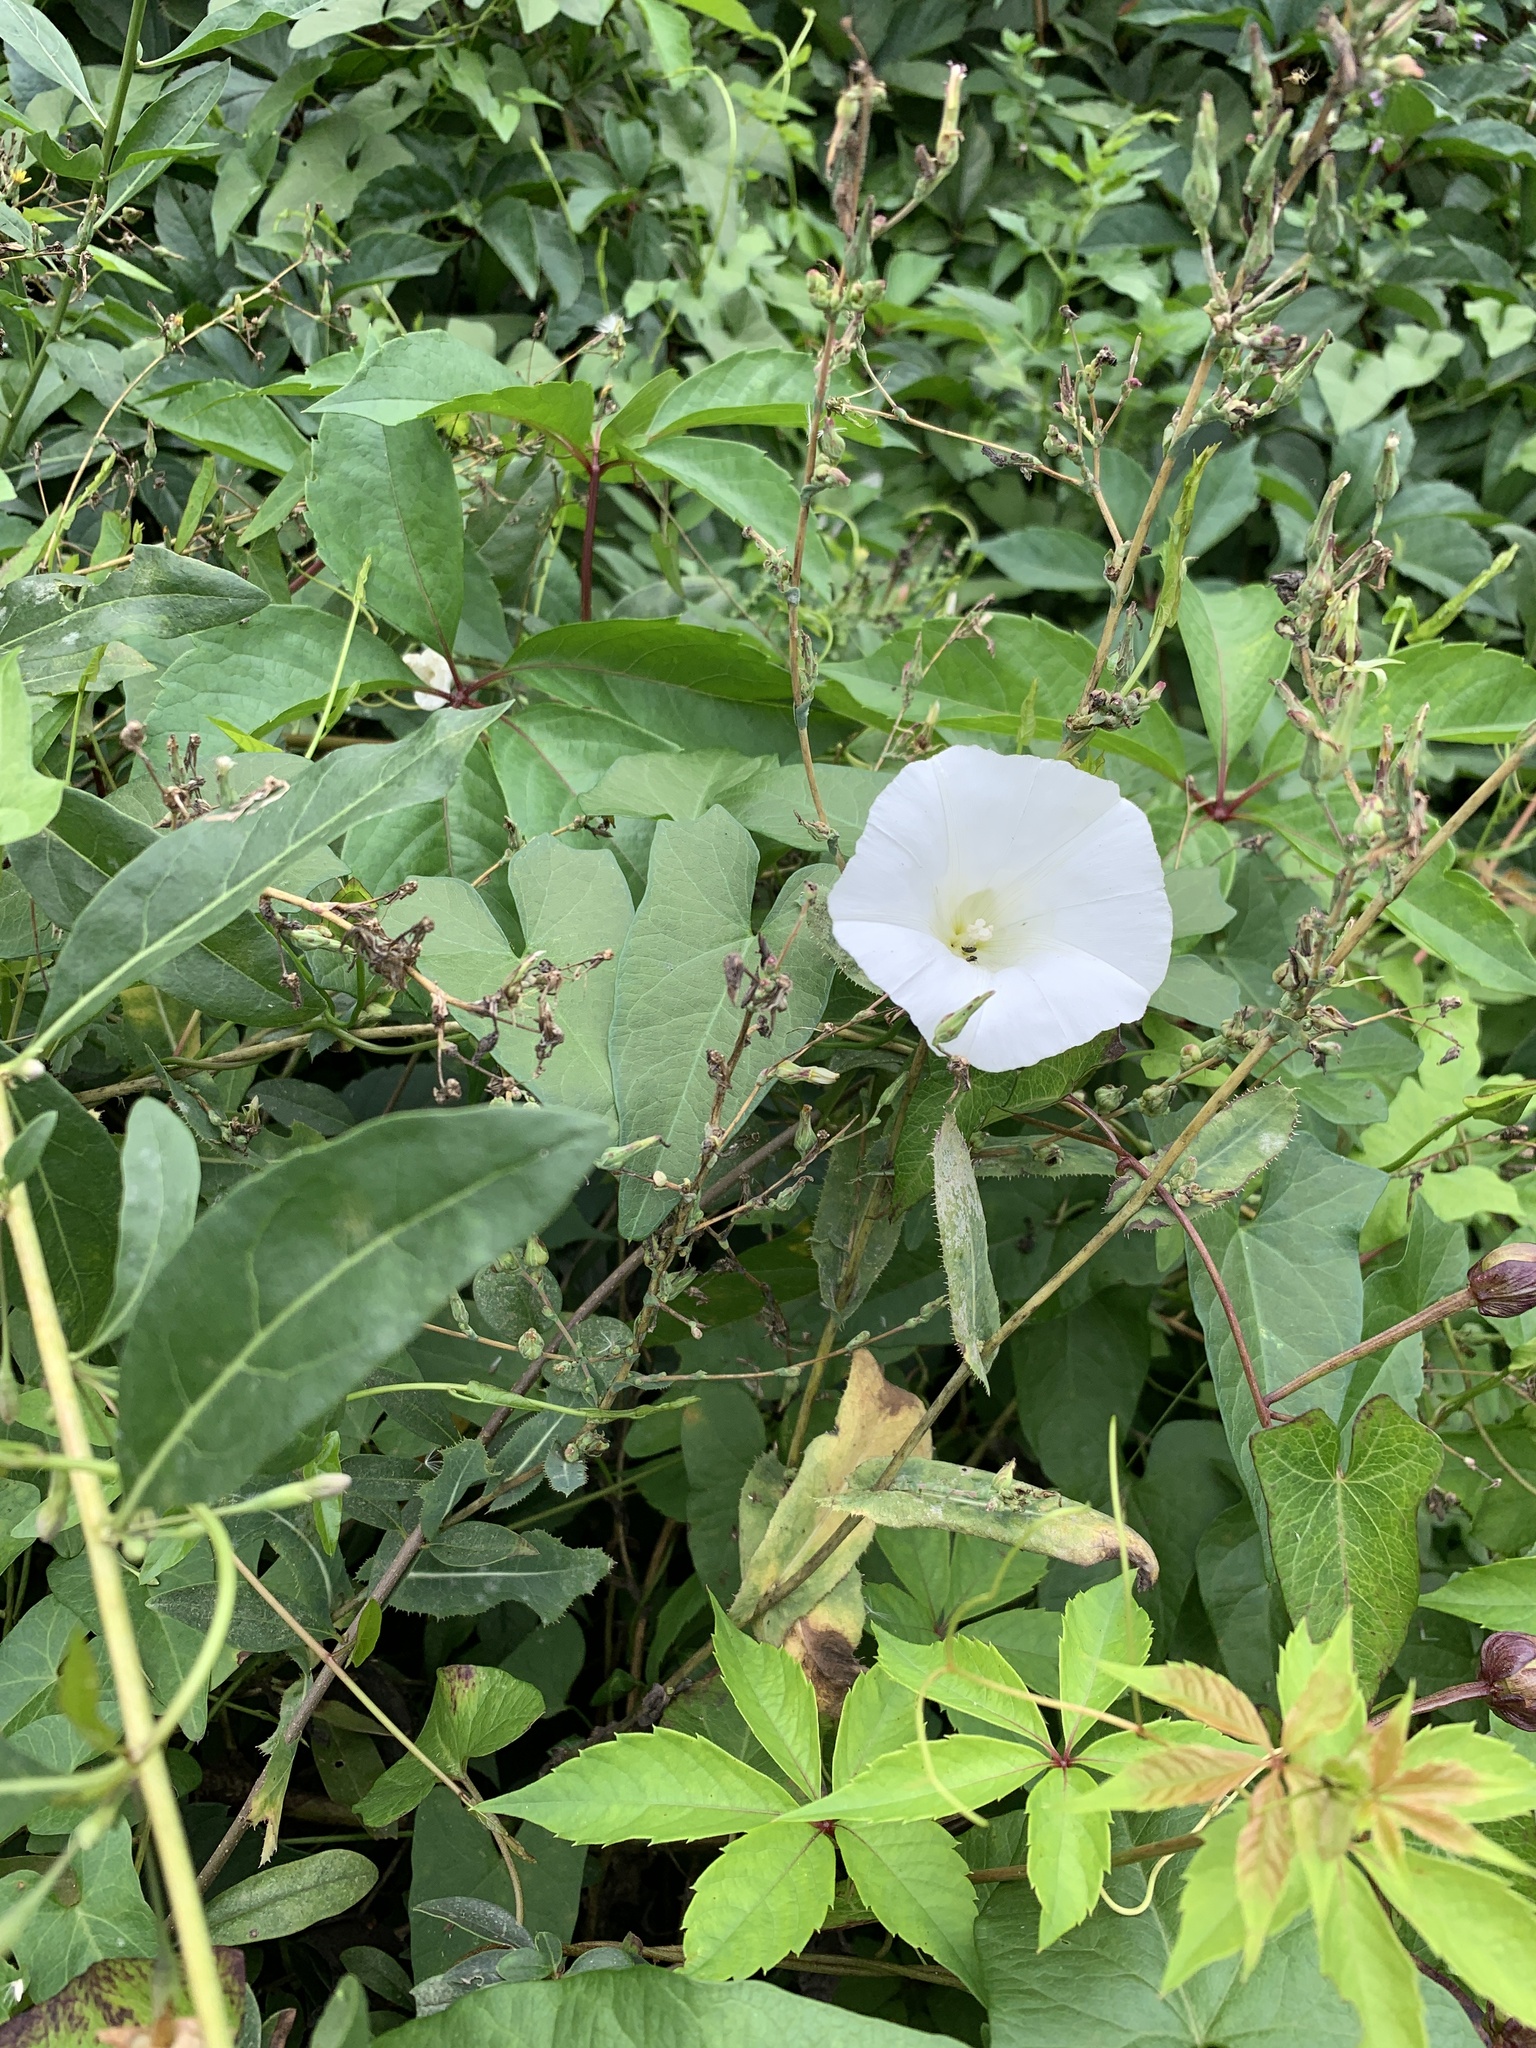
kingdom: Plantae
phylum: Tracheophyta
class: Magnoliopsida
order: Solanales
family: Convolvulaceae
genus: Calystegia
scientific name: Calystegia sepium
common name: Hedge bindweed
